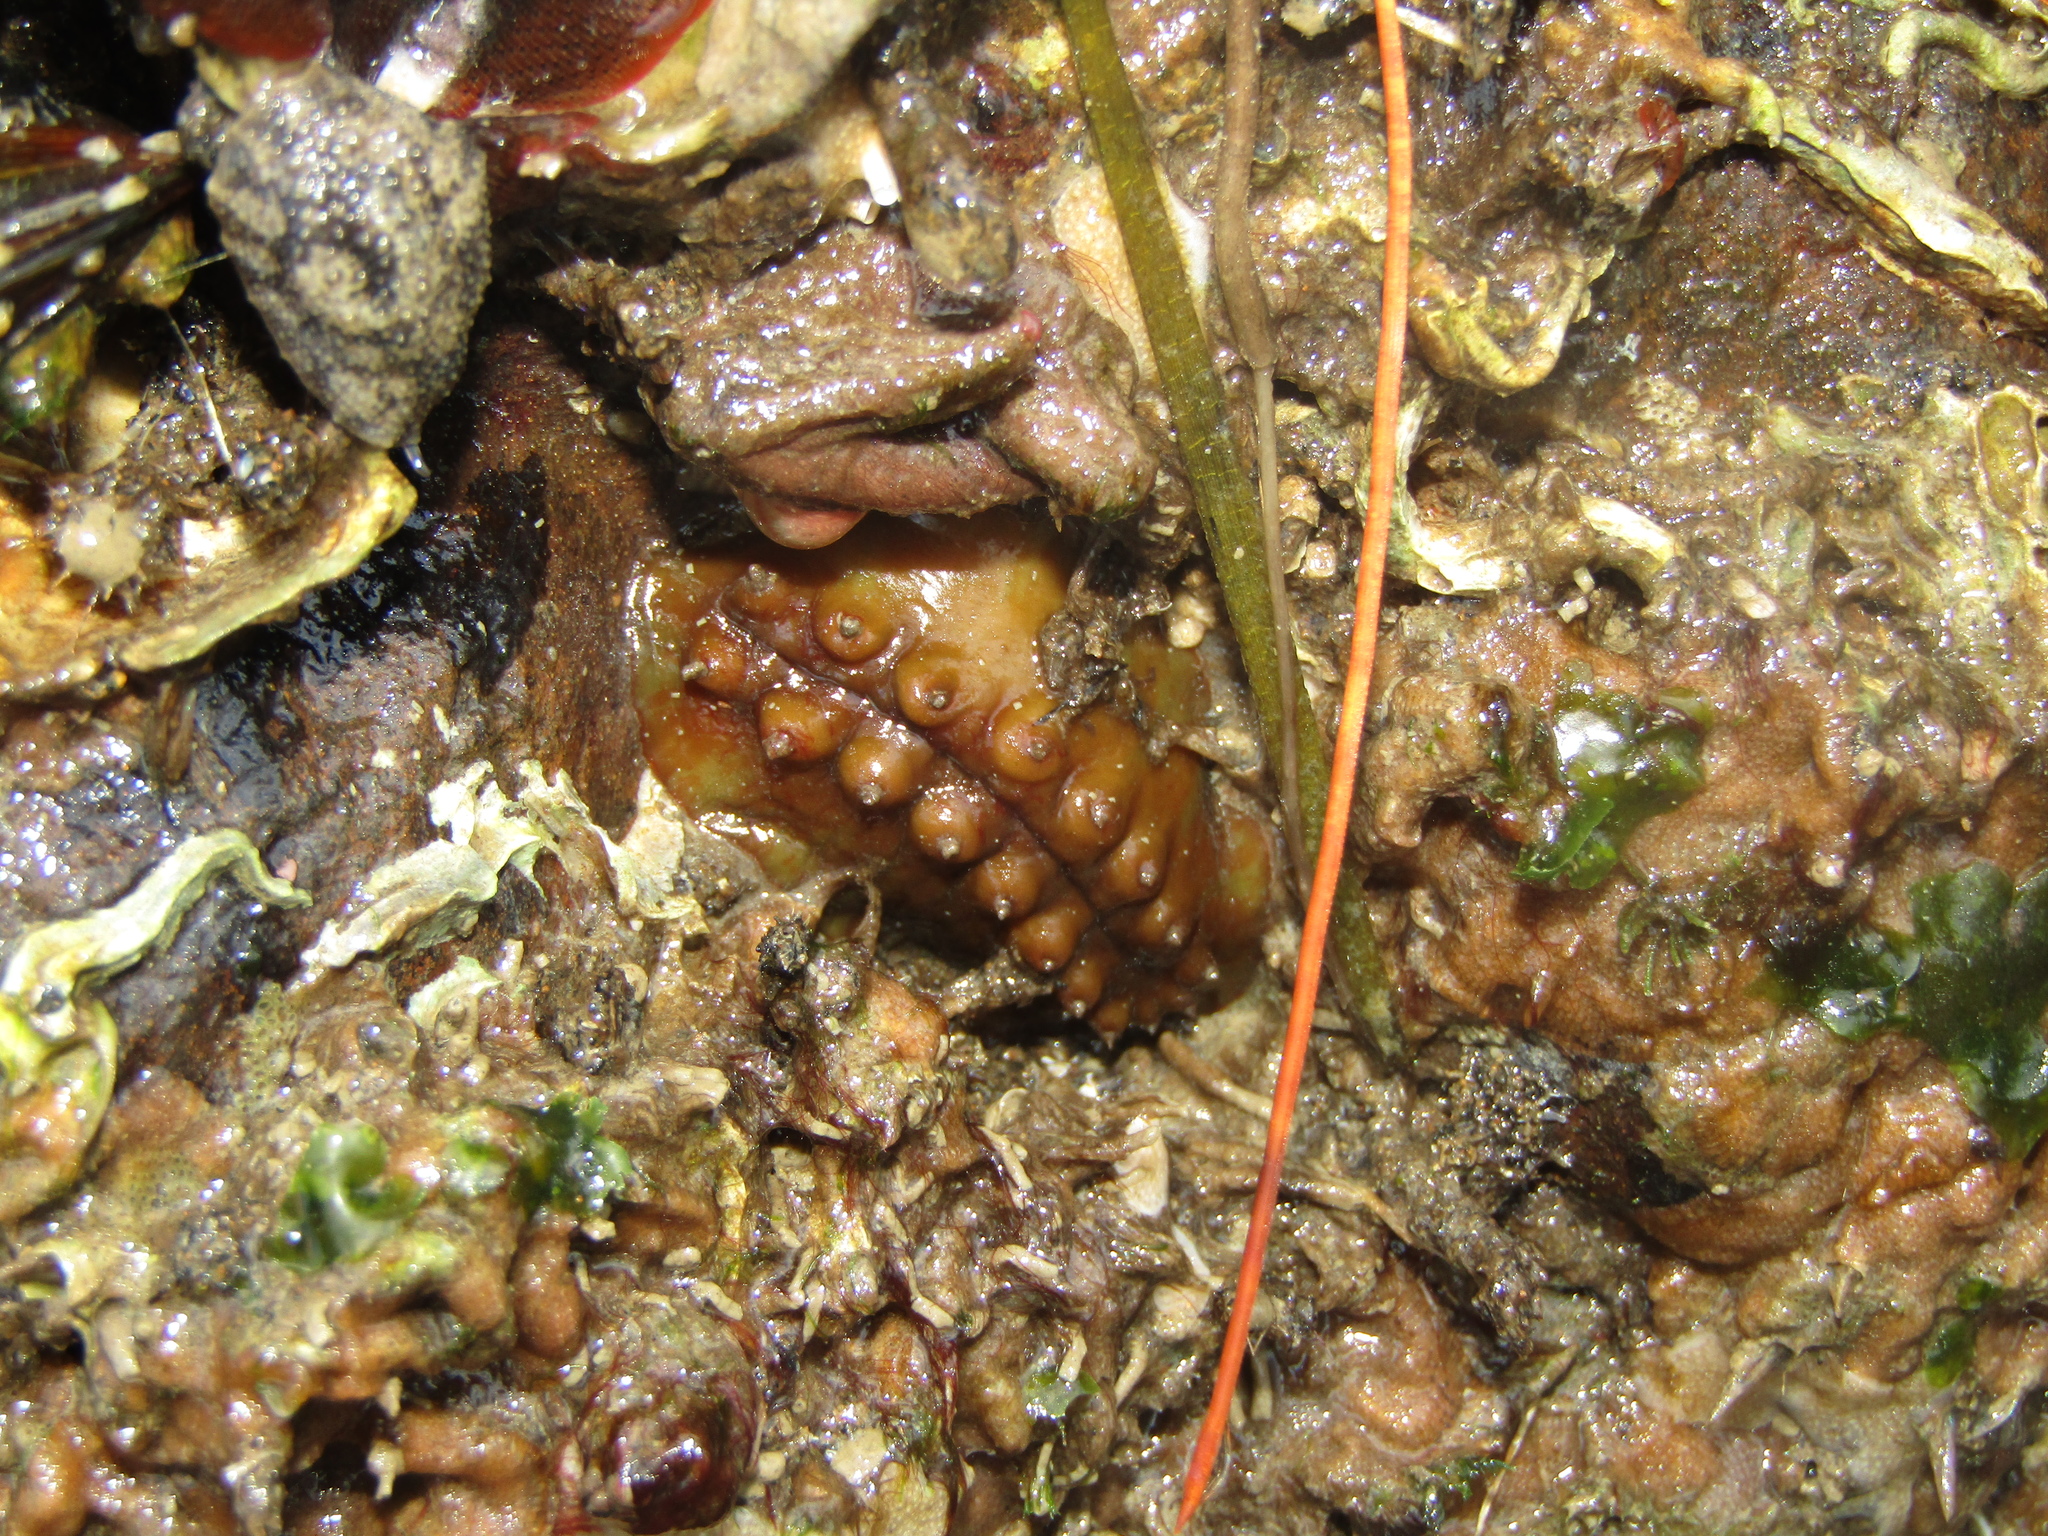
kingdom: Animalia
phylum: Mollusca
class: Polyplacophora
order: Chitonida
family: Acanthochitonidae
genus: Cryptoconchus
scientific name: Cryptoconchus porosus
